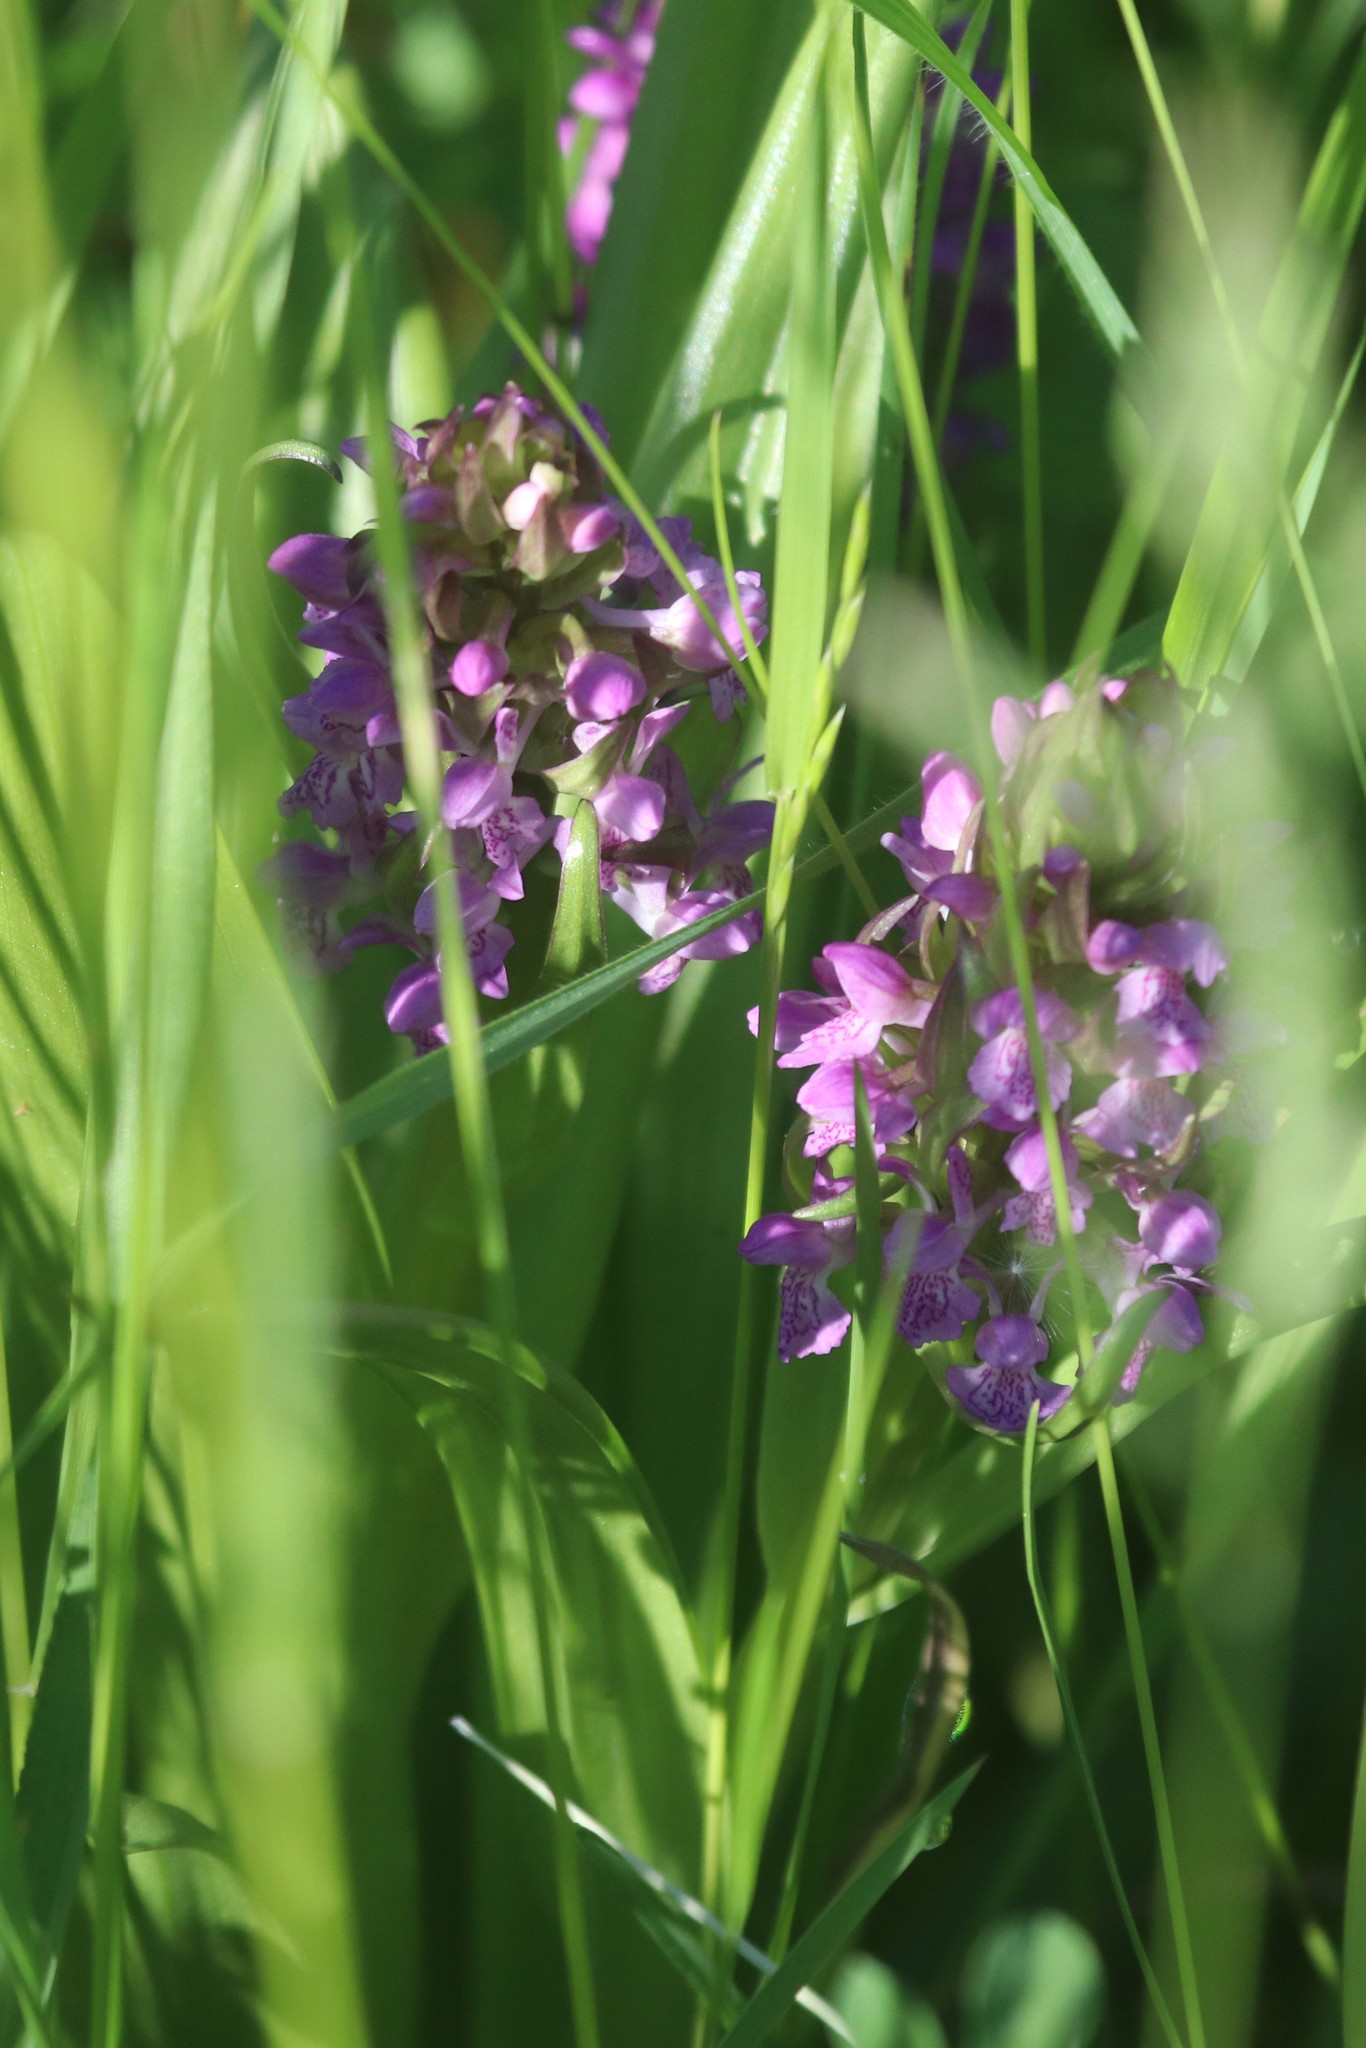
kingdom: Plantae
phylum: Tracheophyta
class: Liliopsida
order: Asparagales
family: Orchidaceae
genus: Dactylorhiza
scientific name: Dactylorhiza incarnata
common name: Early marsh-orchid
